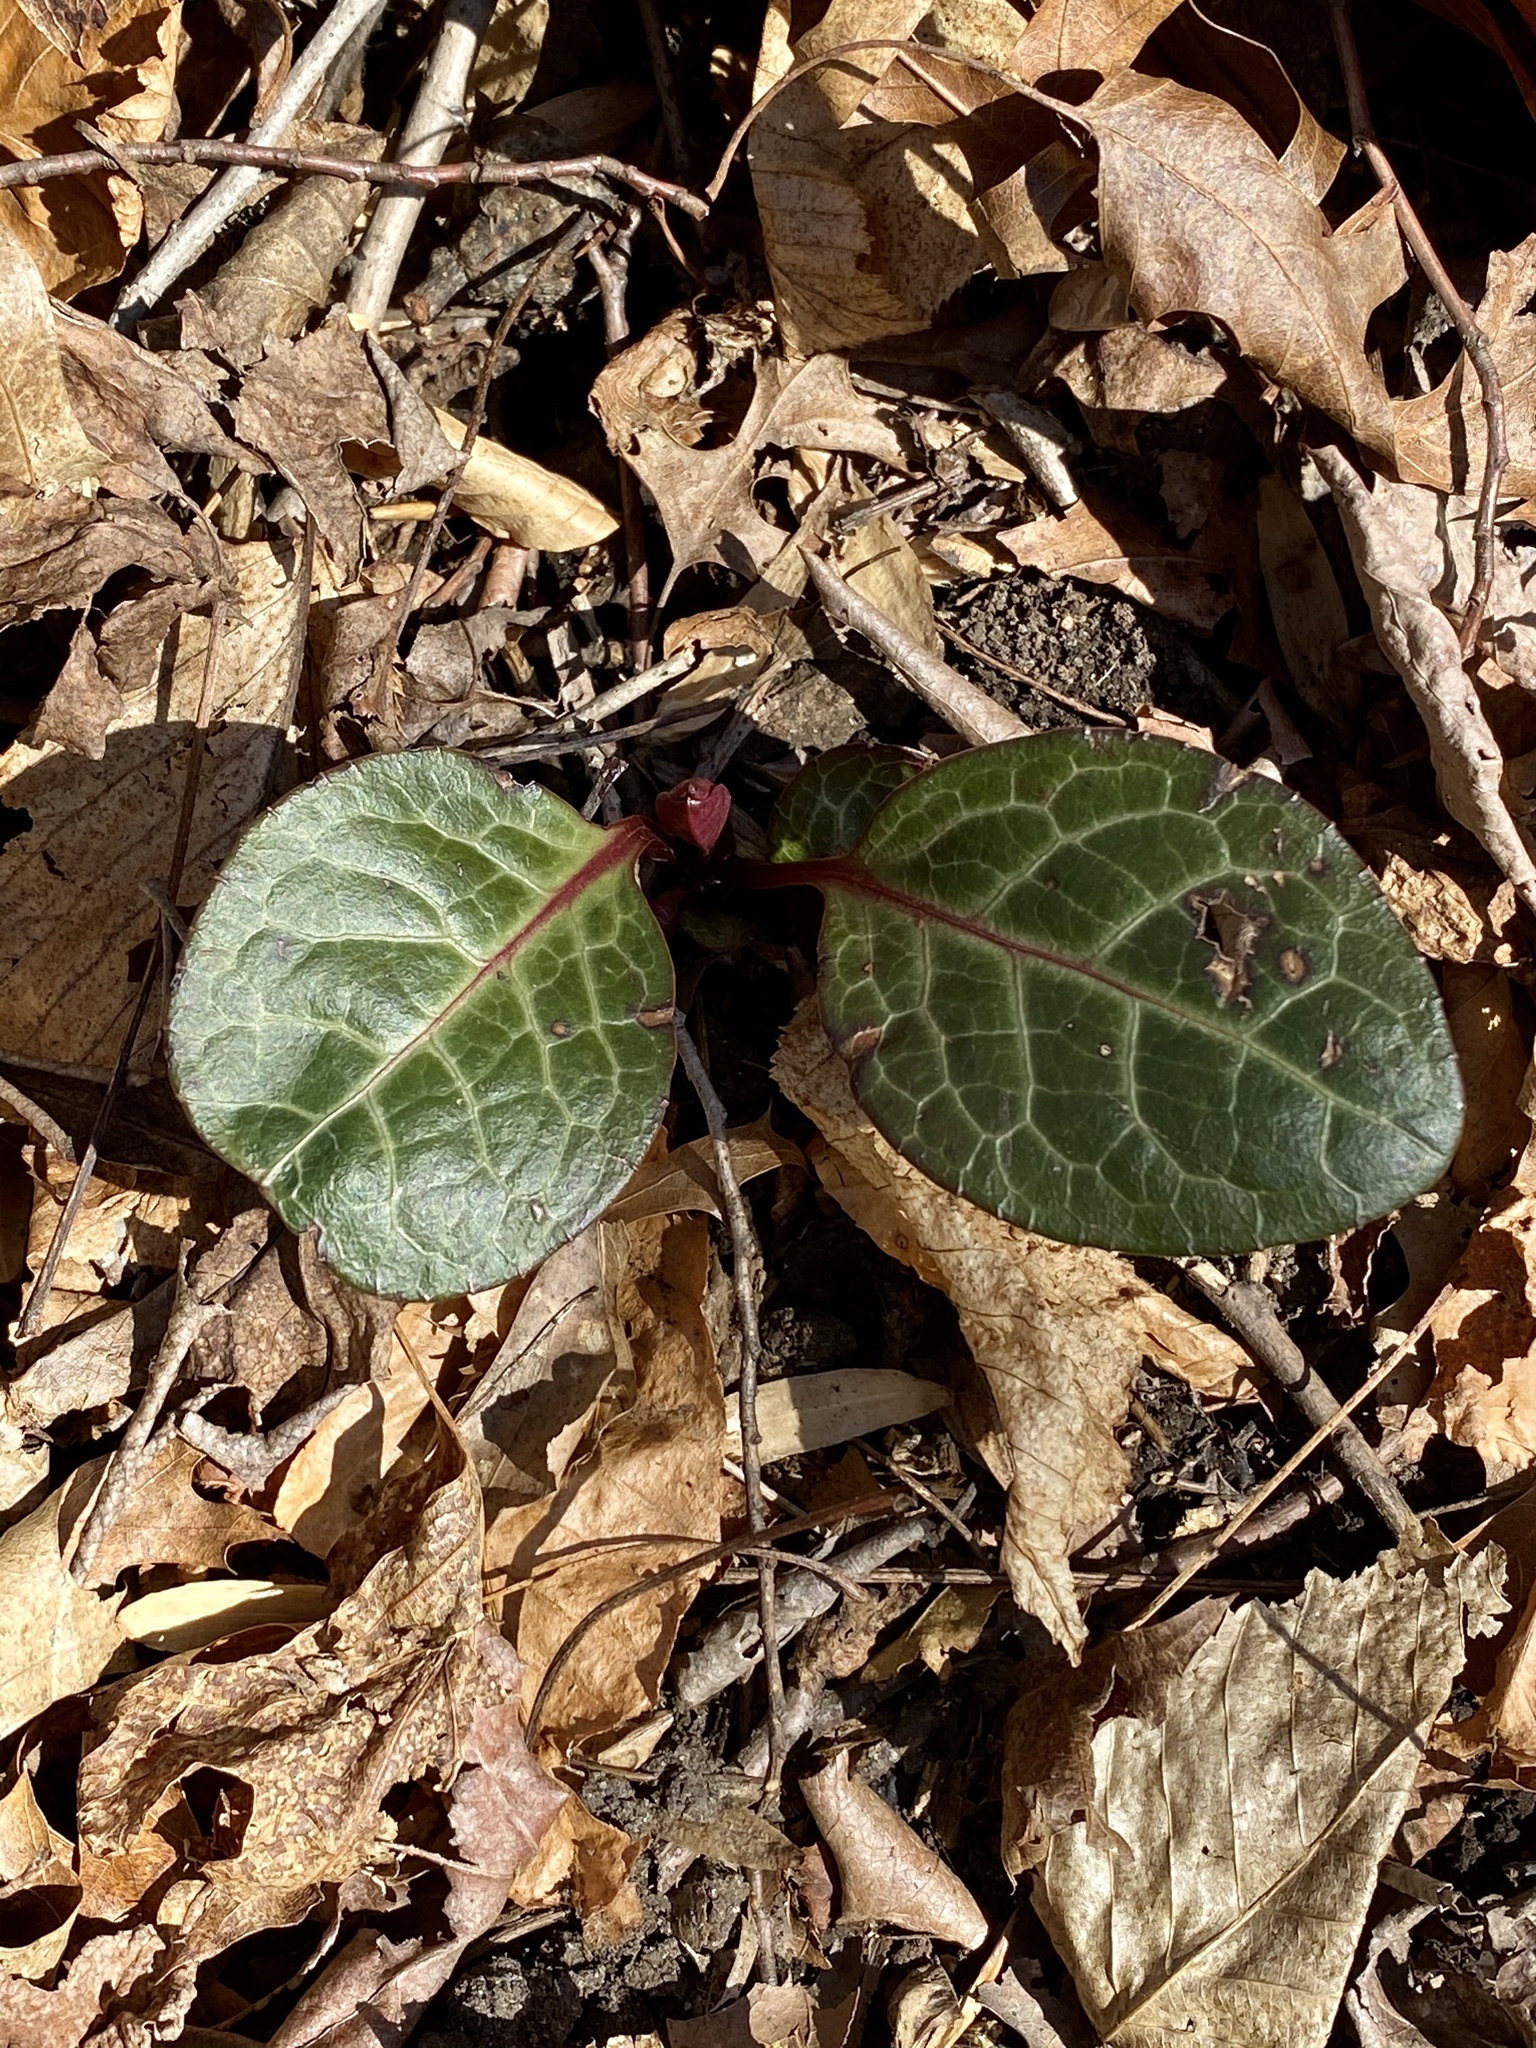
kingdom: Plantae
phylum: Tracheophyta
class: Magnoliopsida
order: Ericales
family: Ericaceae
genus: Pyrola
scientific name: Pyrola americana
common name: American wintergreen
